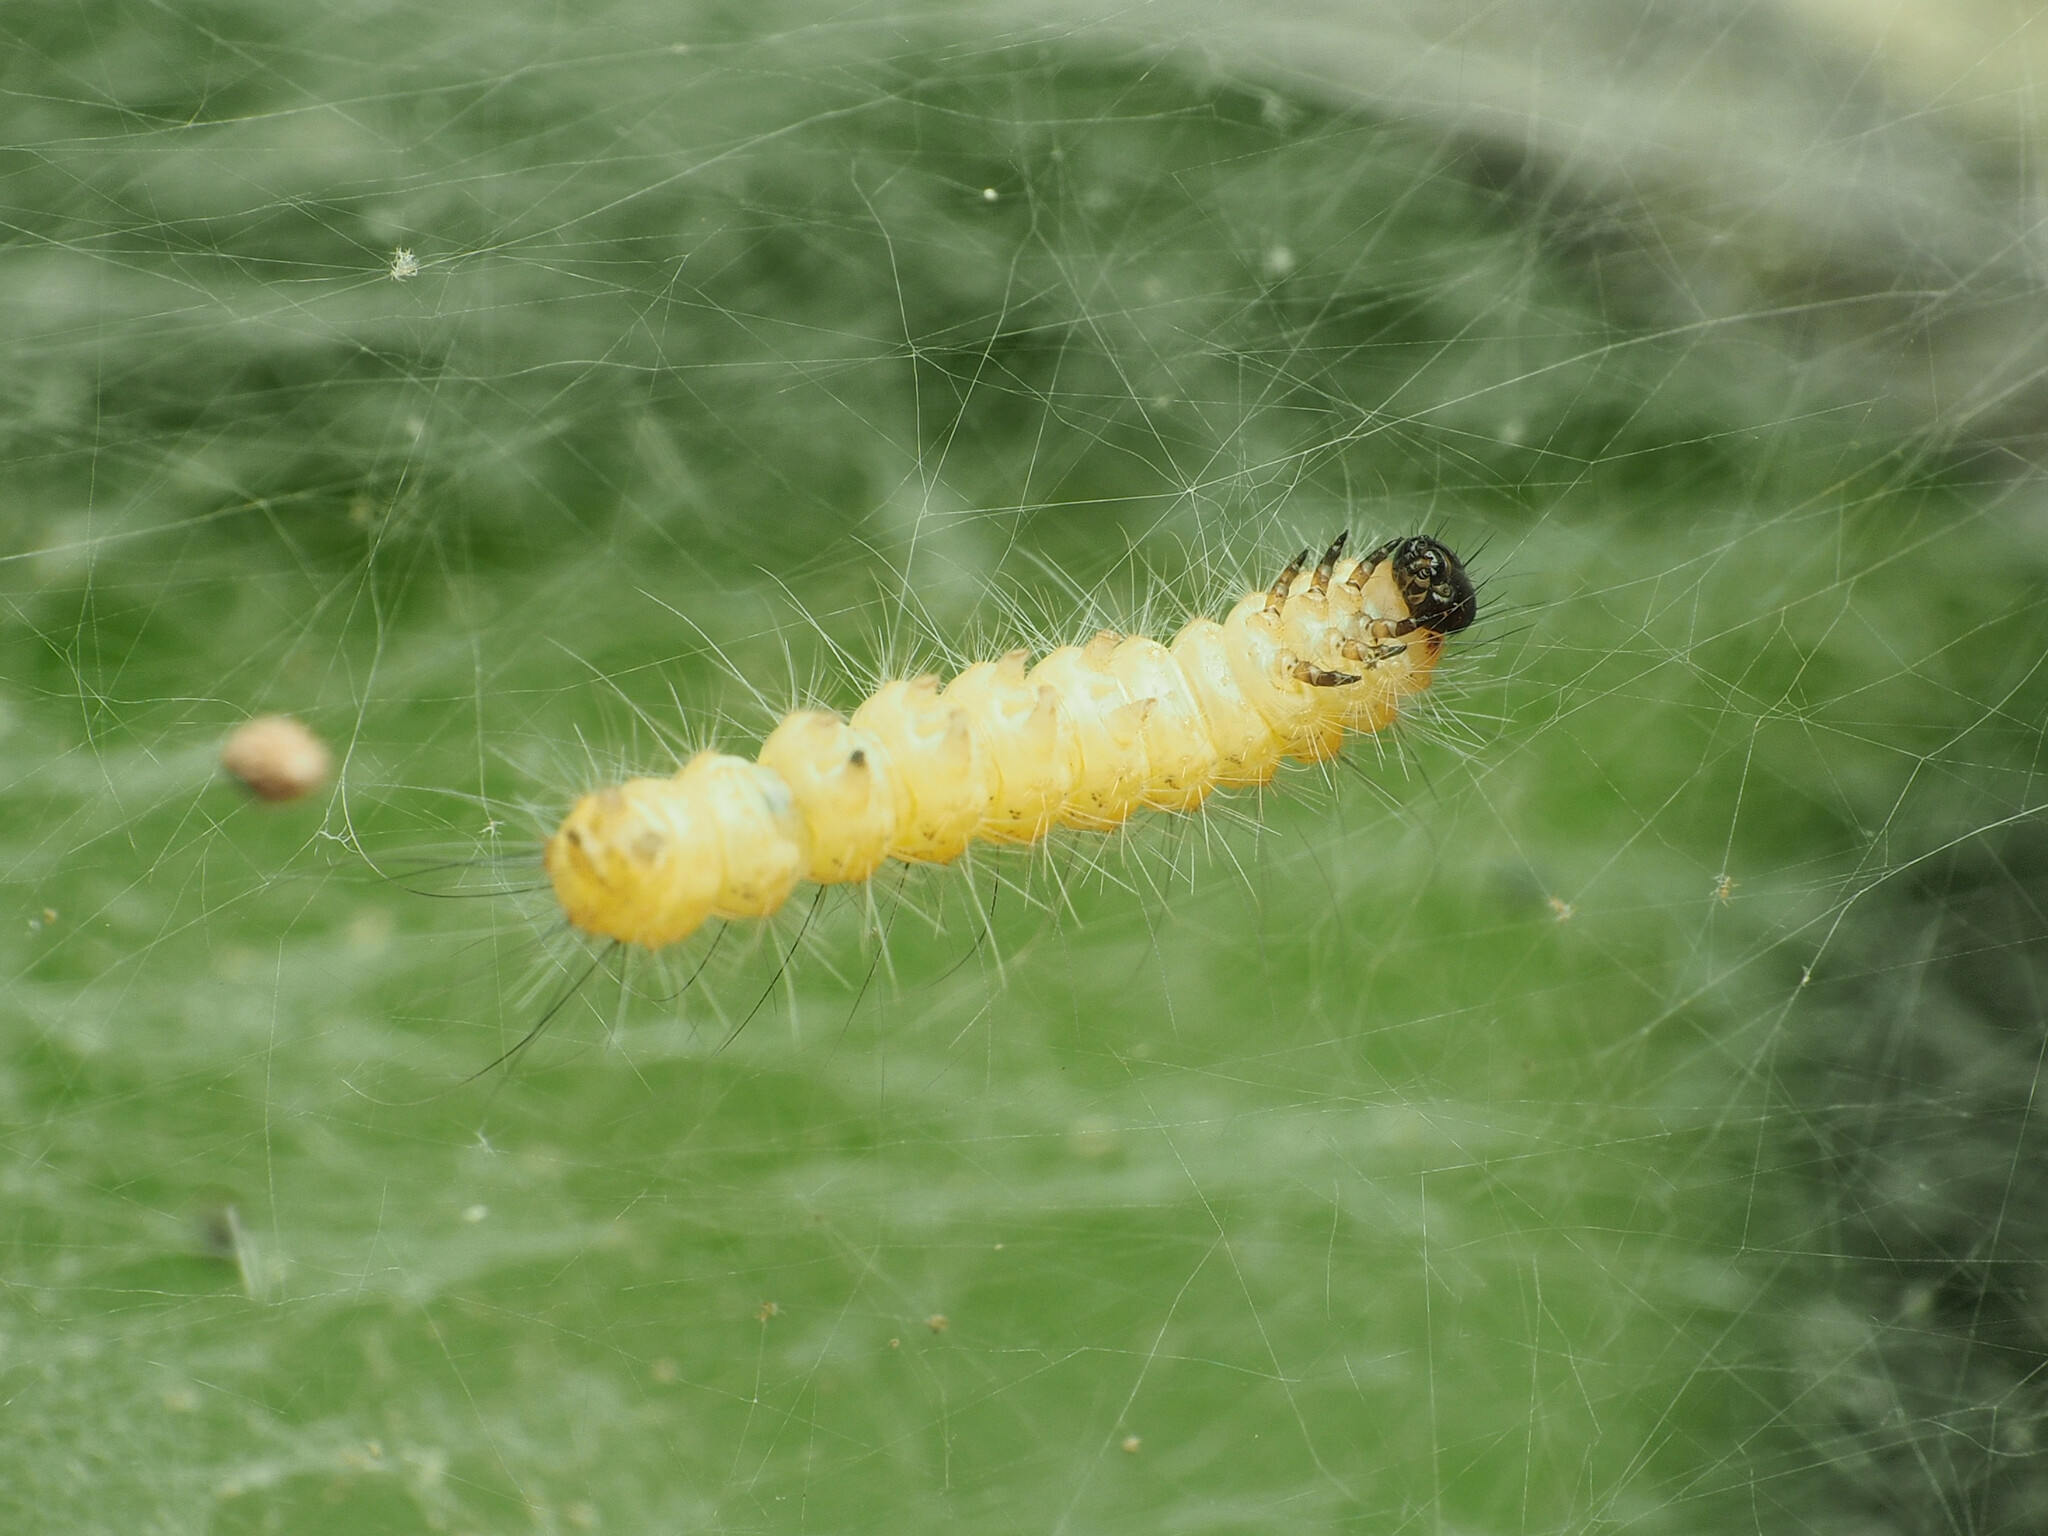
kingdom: Animalia
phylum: Arthropoda
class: Insecta
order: Lepidoptera
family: Erebidae
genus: Hyphantria
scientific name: Hyphantria cunea
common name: American white moth
